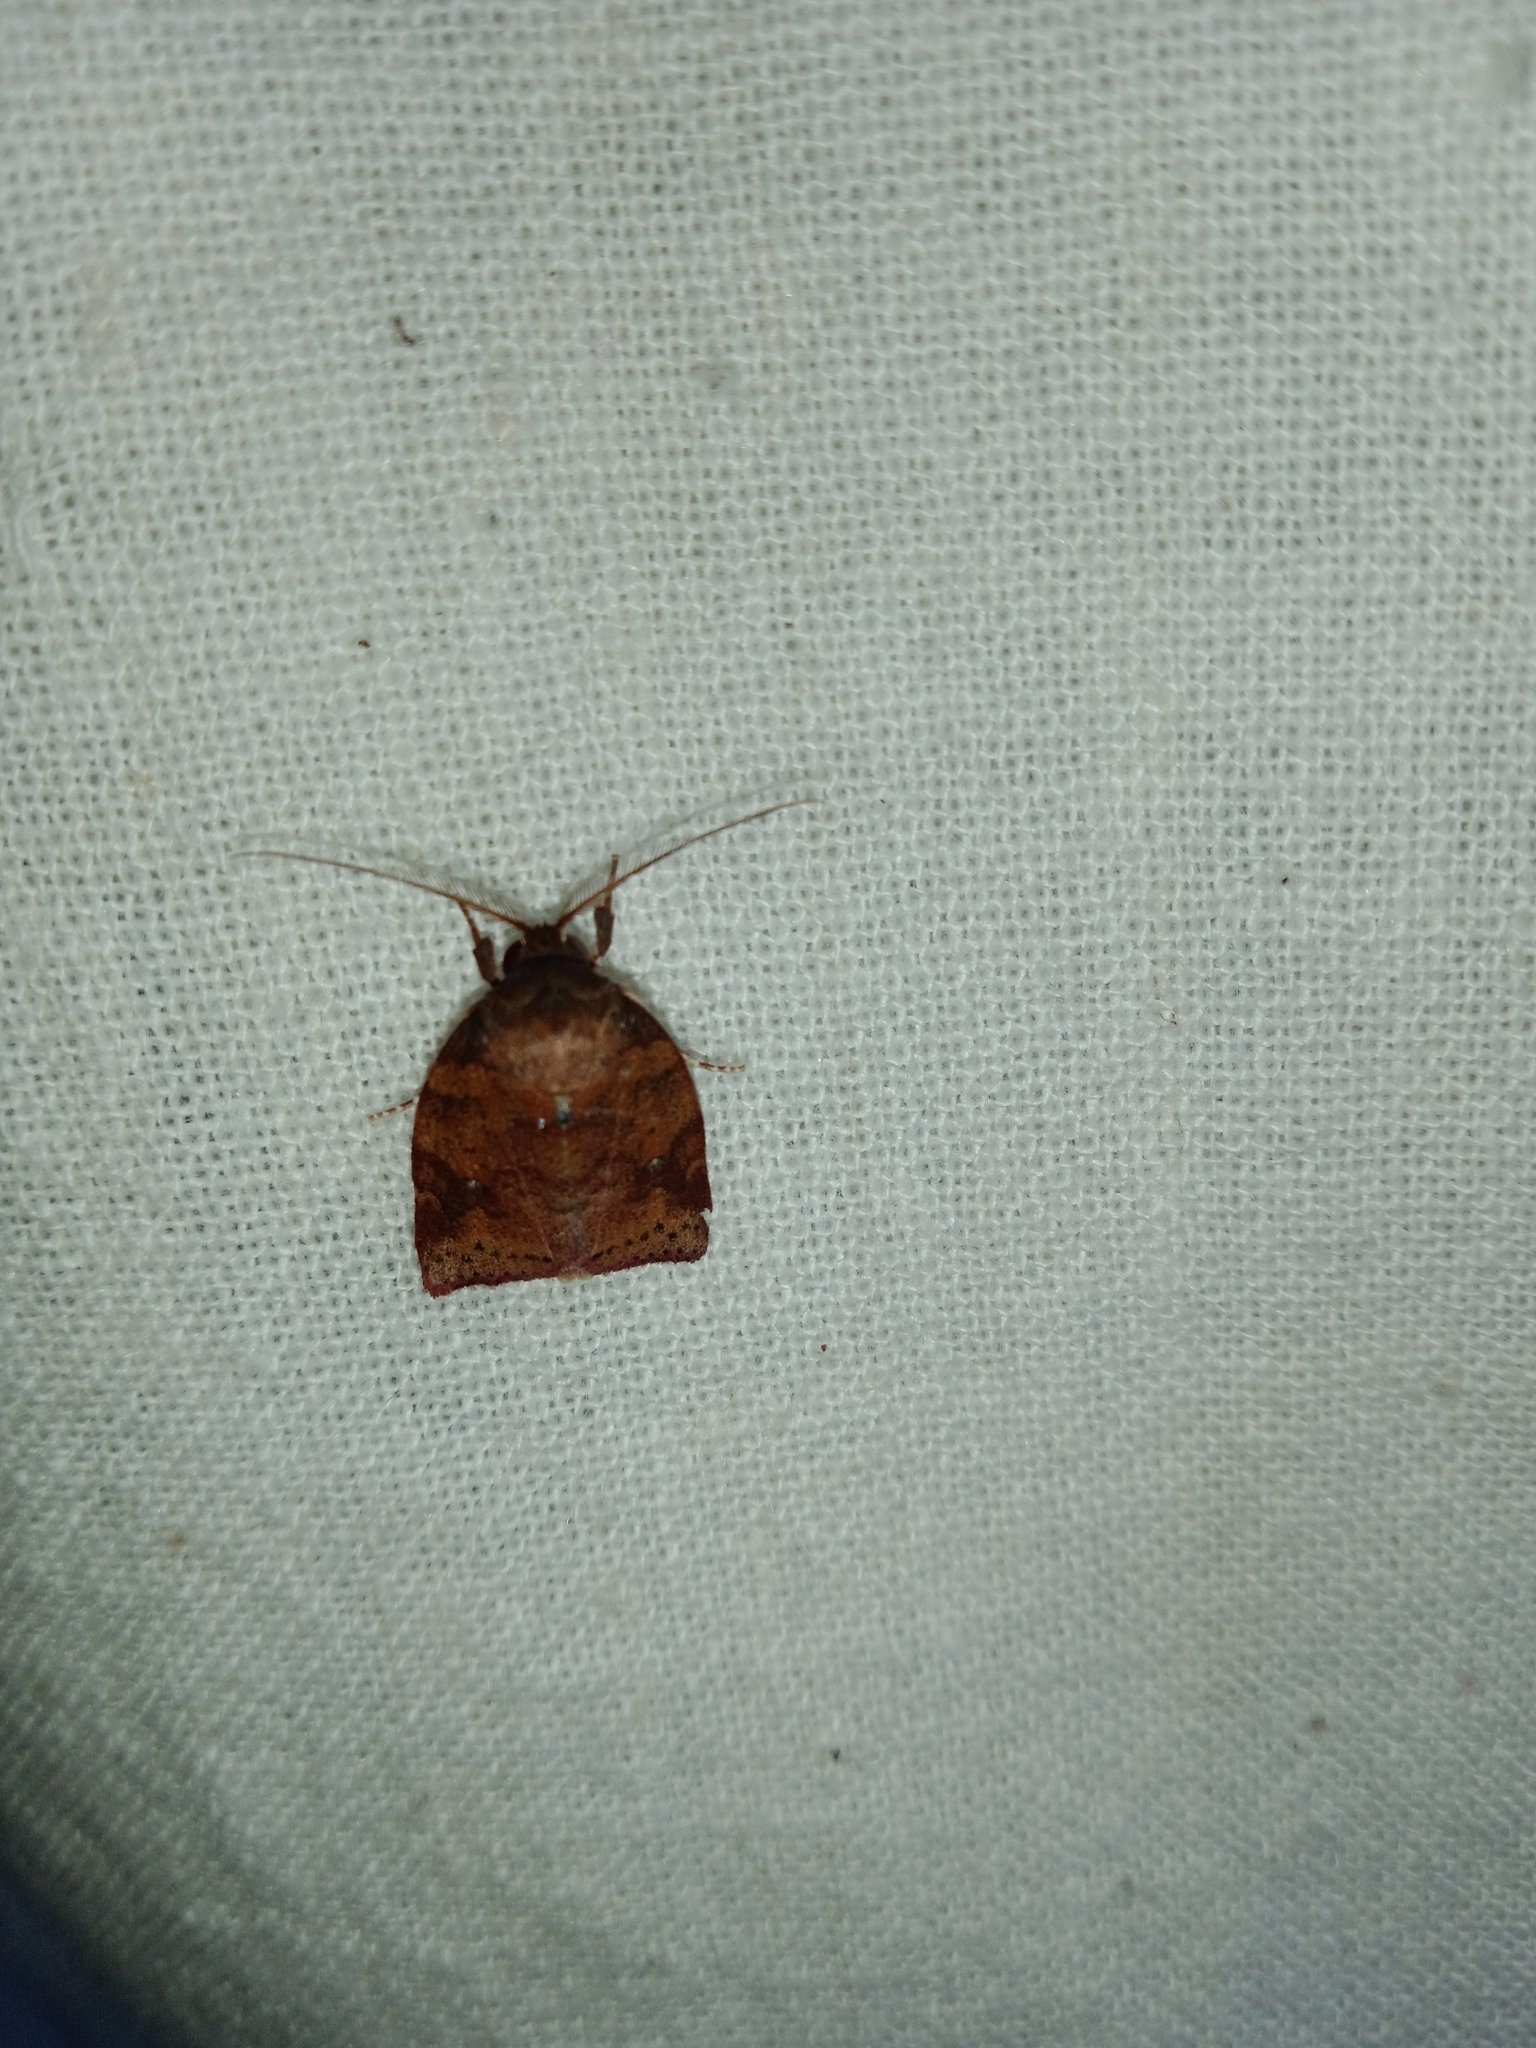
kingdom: Animalia
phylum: Arthropoda
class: Insecta
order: Lepidoptera
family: Nolidae
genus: Beara
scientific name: Beara dichromella
